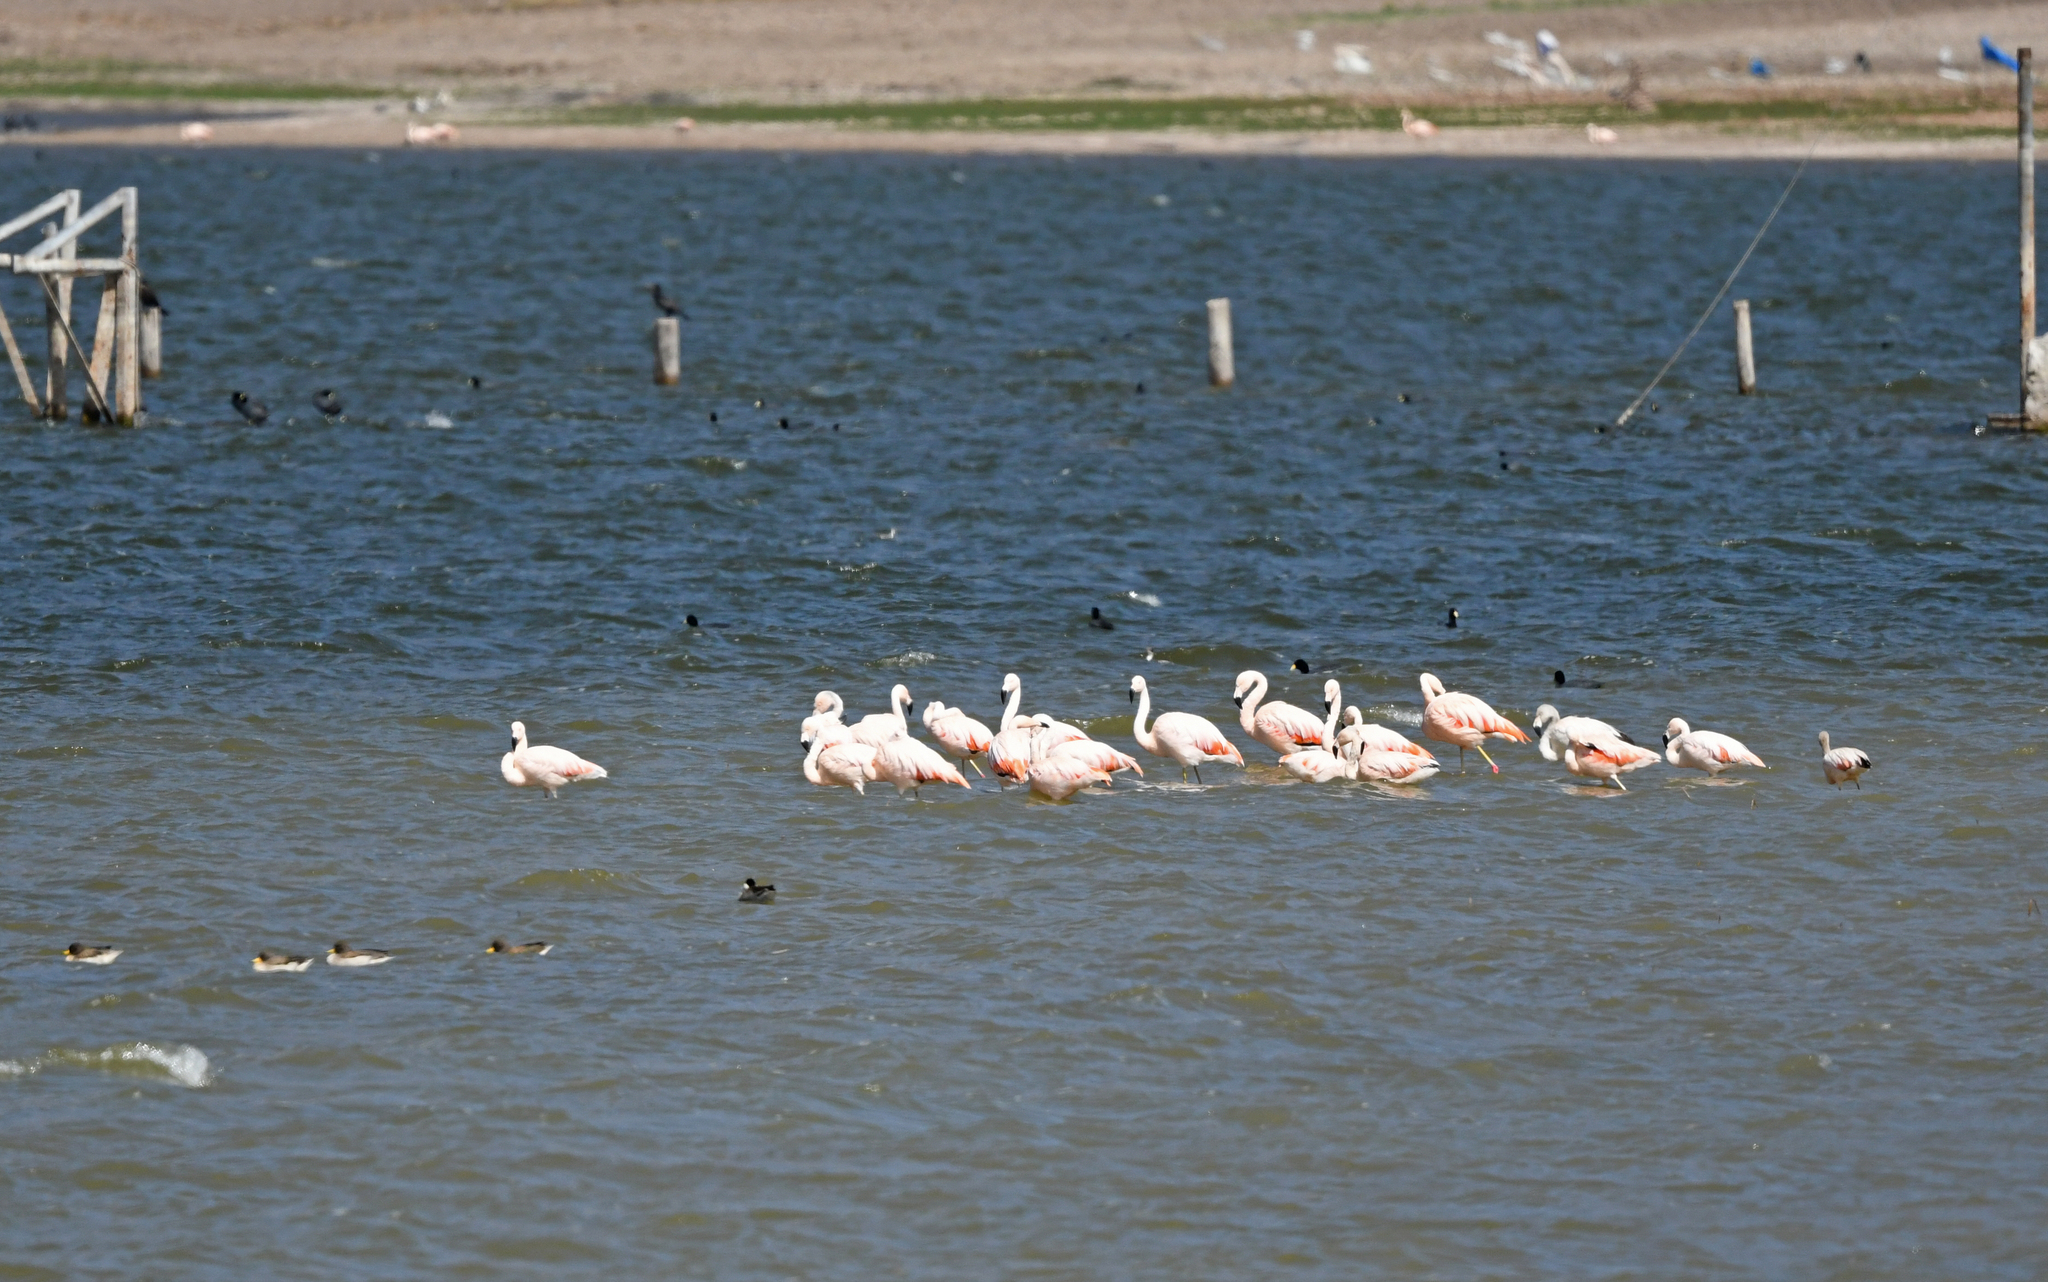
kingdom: Animalia
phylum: Chordata
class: Aves
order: Phoenicopteriformes
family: Phoenicopteridae
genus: Phoenicopterus
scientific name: Phoenicopterus chilensis
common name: Chilean flamingo
